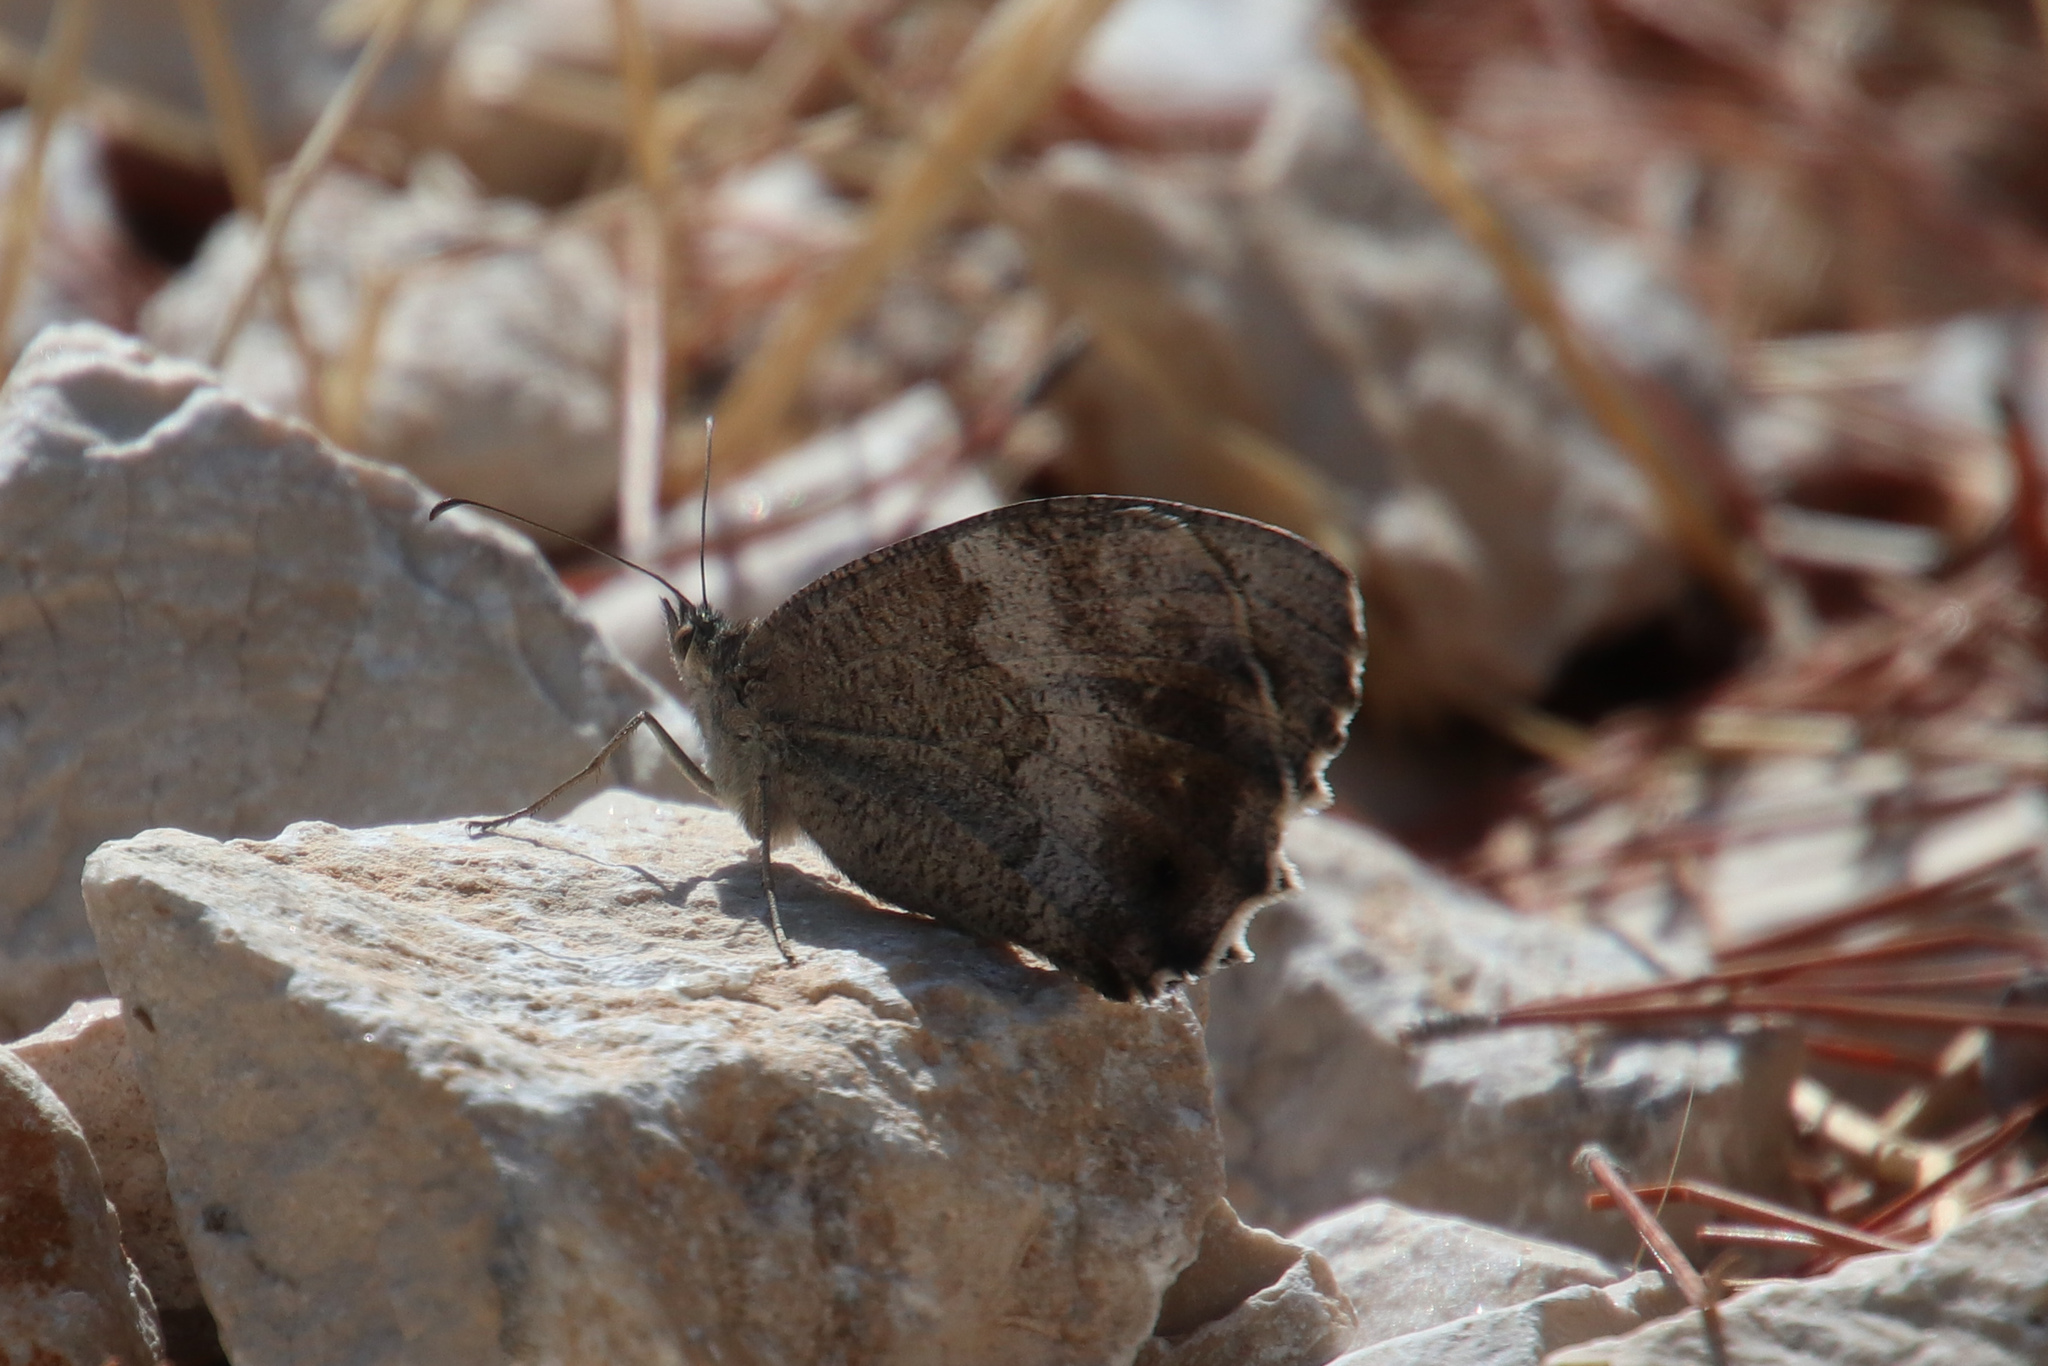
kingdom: Animalia
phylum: Arthropoda
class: Insecta
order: Lepidoptera
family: Nymphalidae
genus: Hipparchia
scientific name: Hipparchia statilinus
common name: Tree grayling
